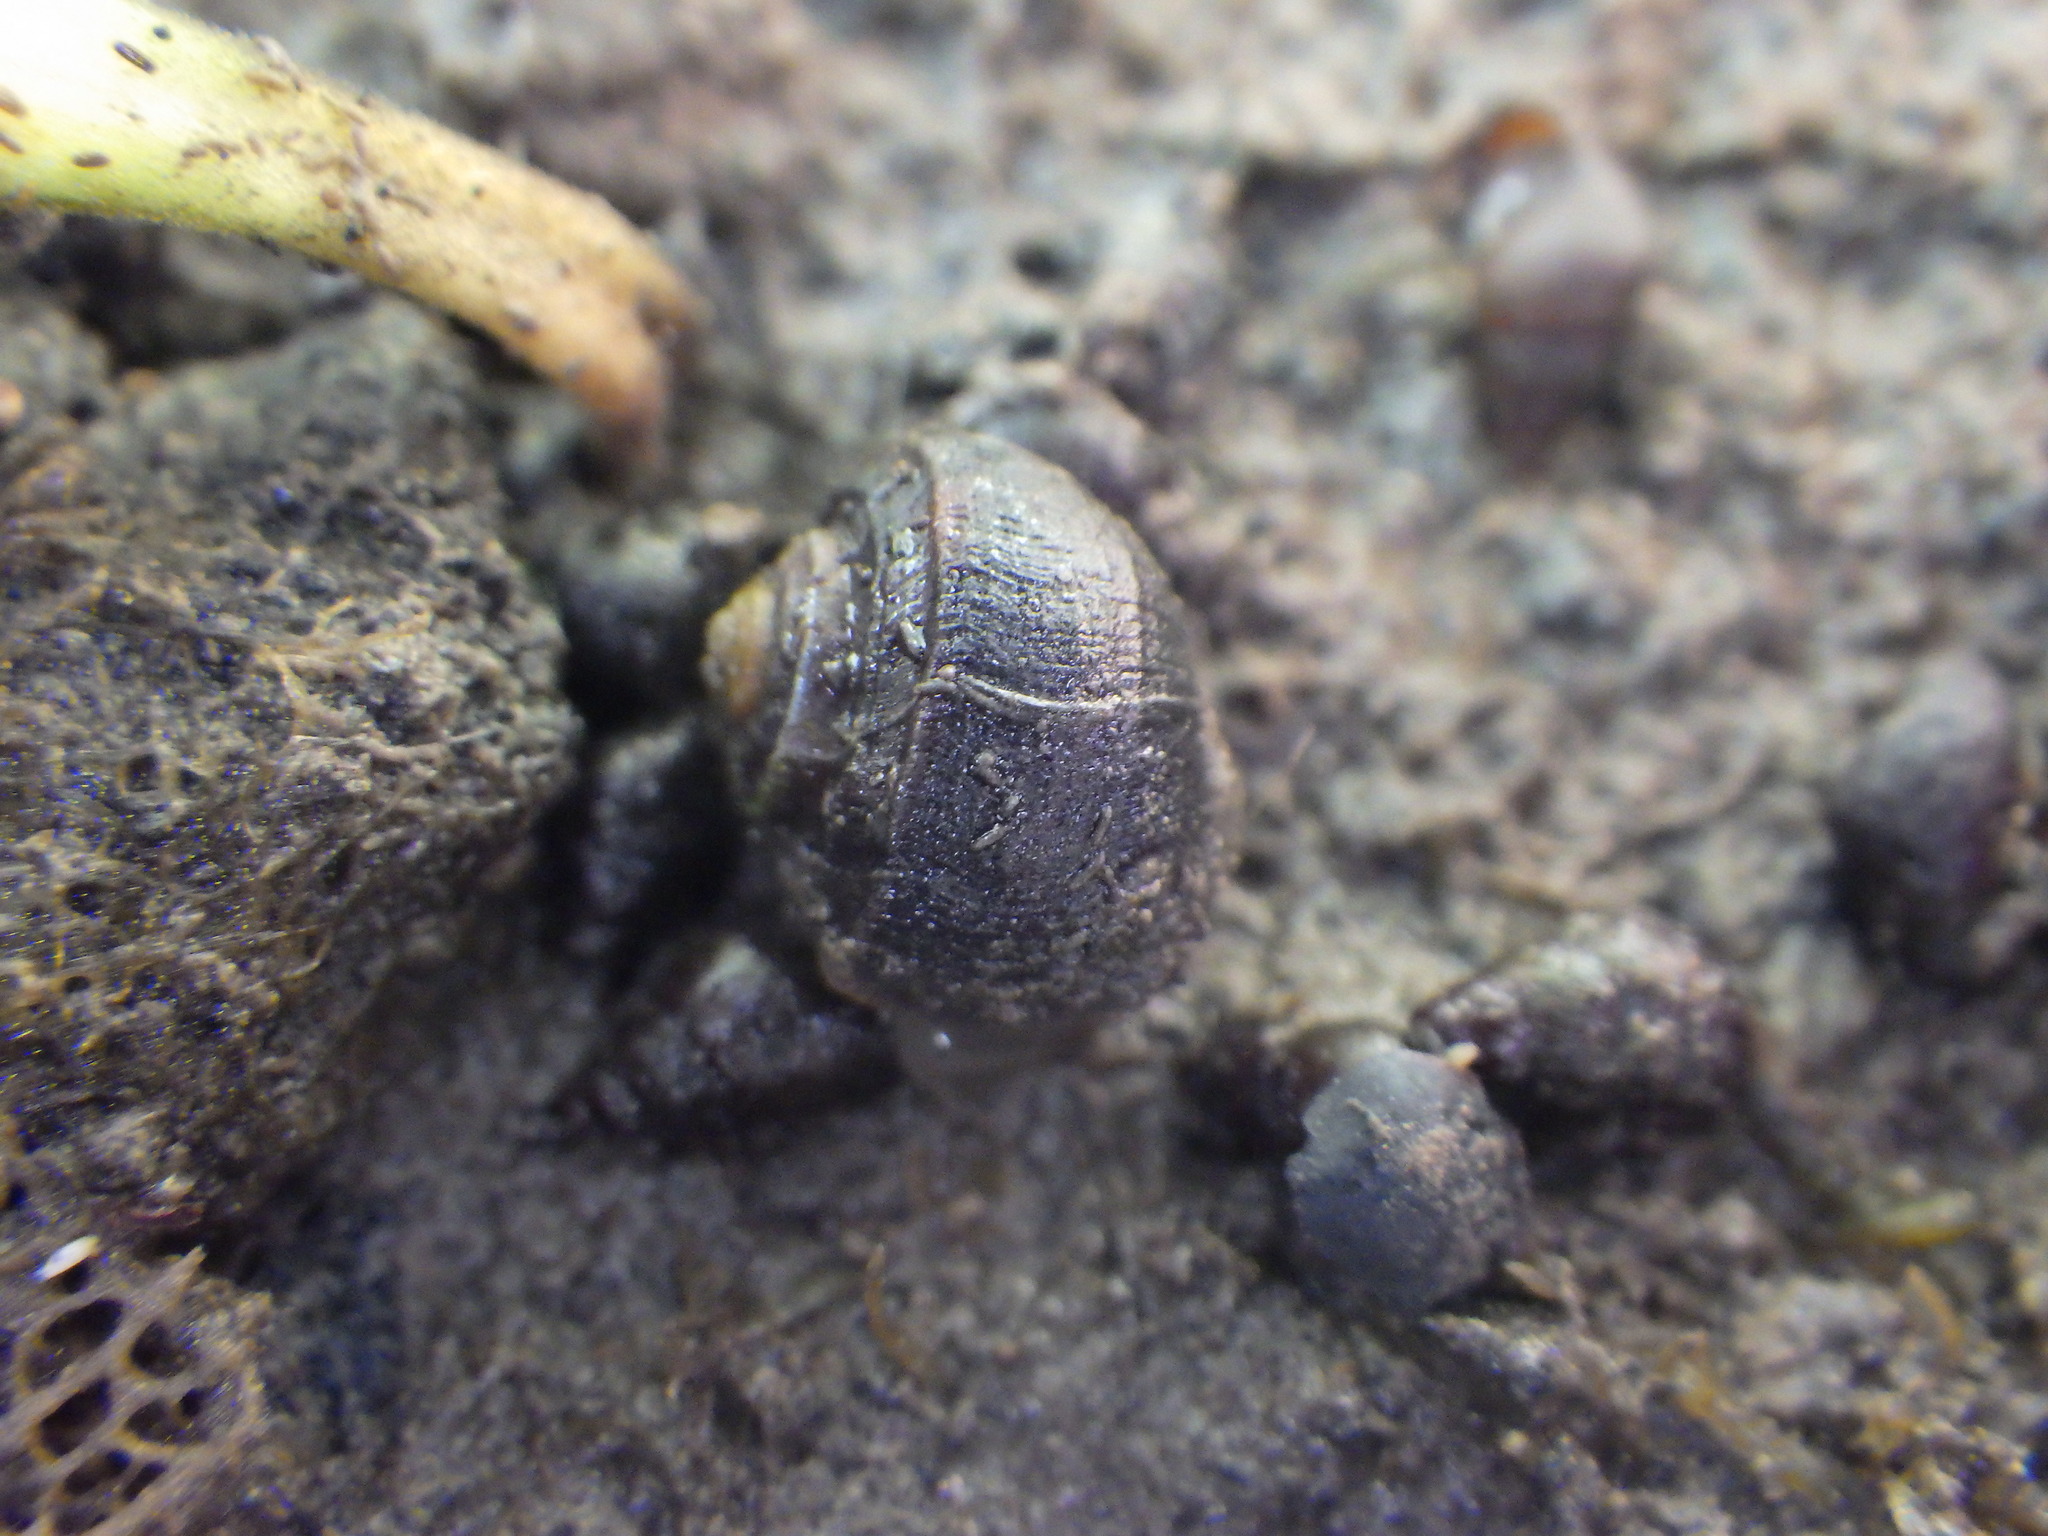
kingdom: Animalia
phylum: Mollusca
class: Gastropoda
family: Amphibolidae
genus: Amphibola
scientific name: Amphibola crenata
